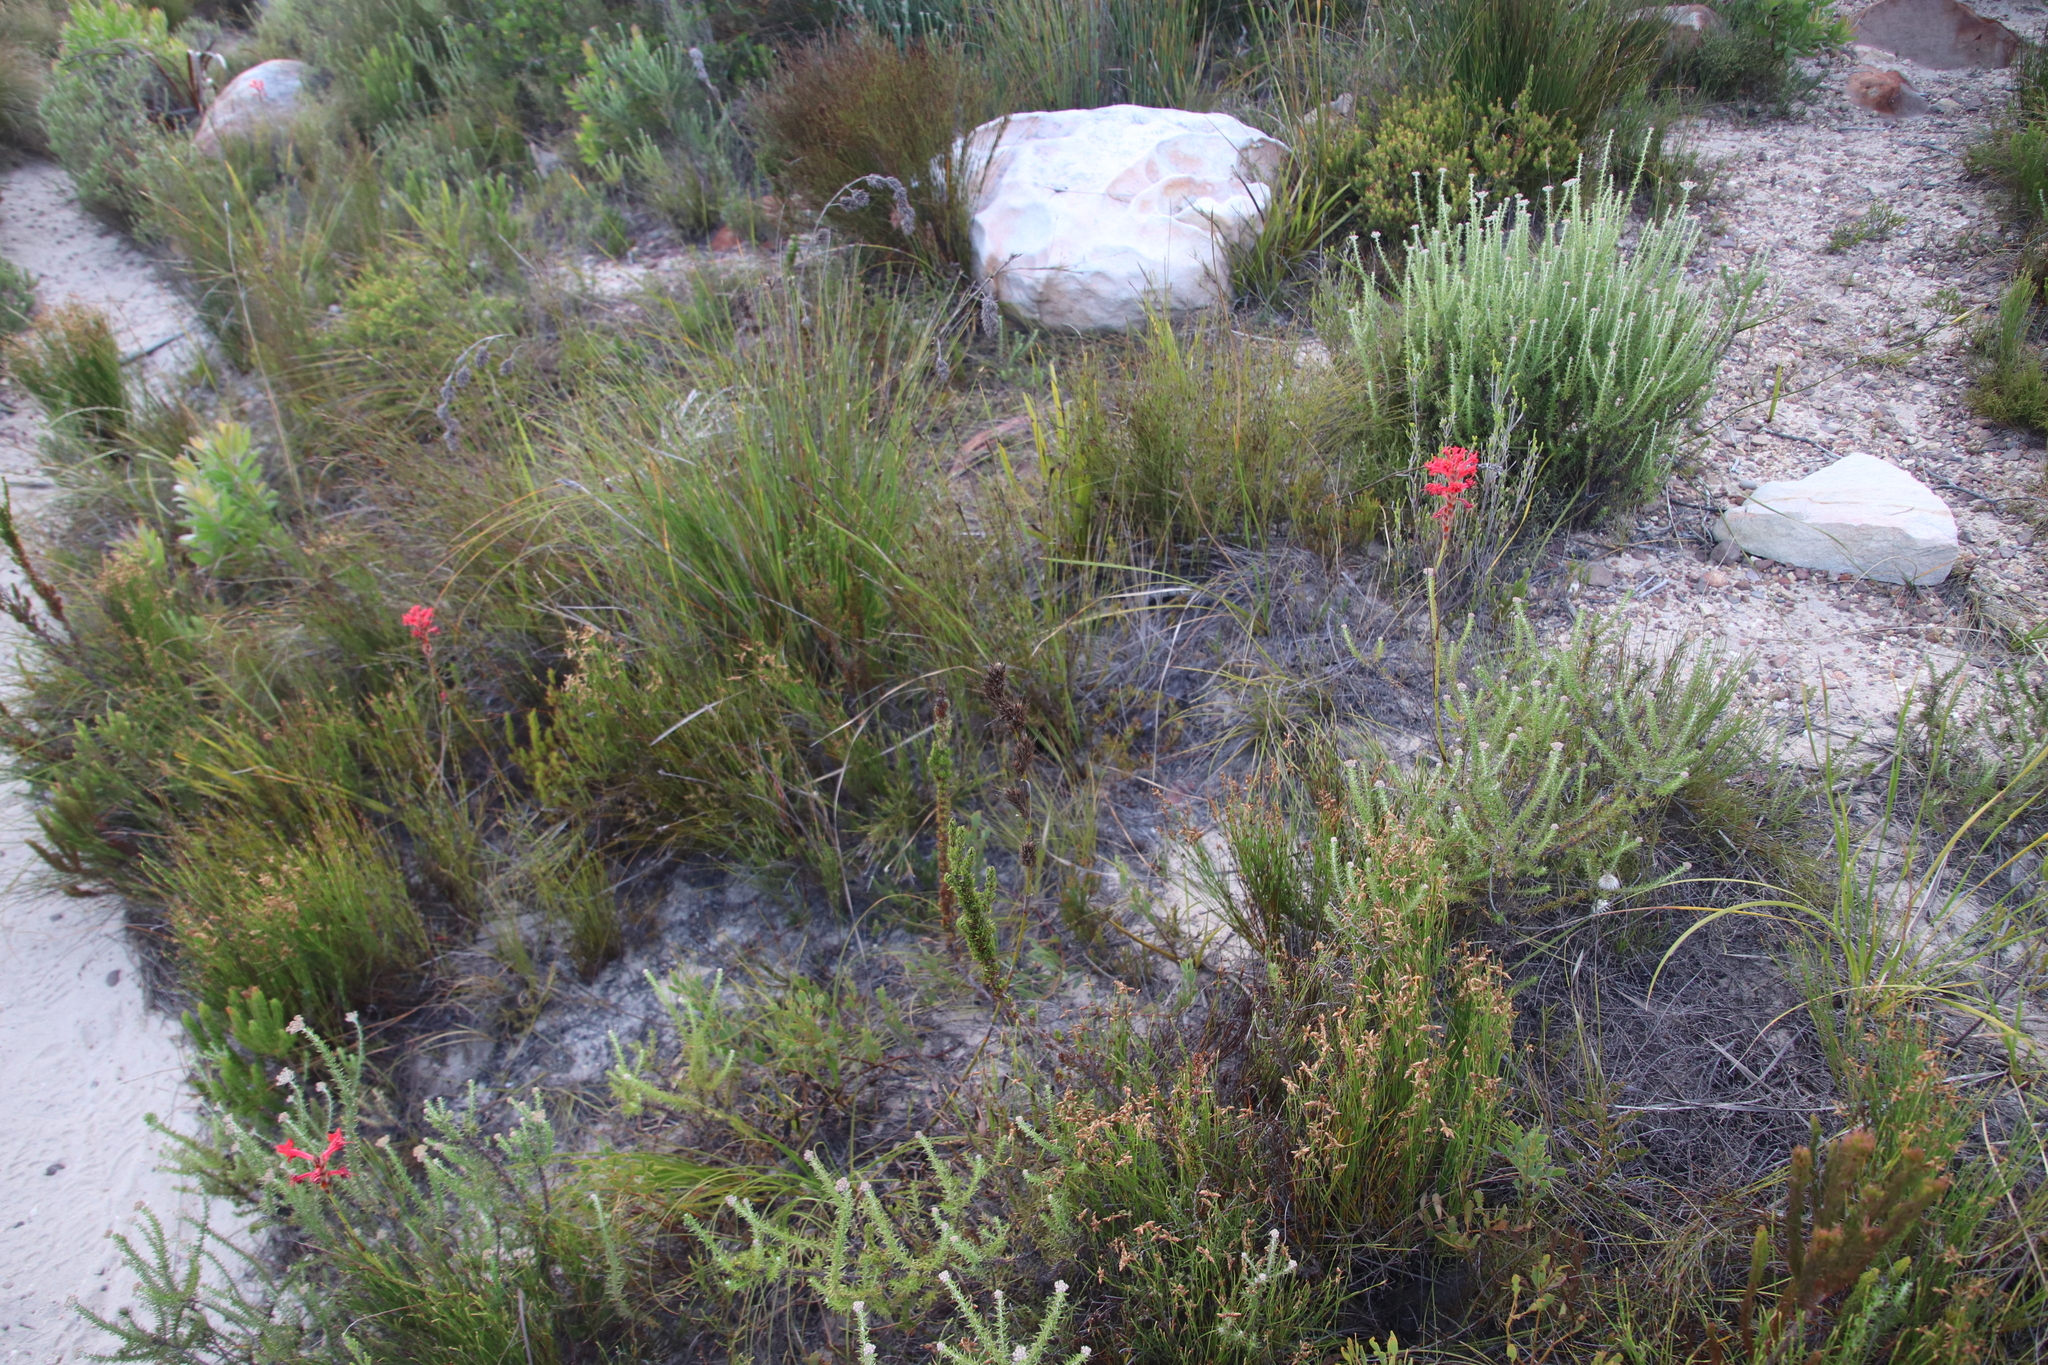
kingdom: Plantae
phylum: Tracheophyta
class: Liliopsida
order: Asparagales
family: Iridaceae
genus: Tritoniopsis
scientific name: Tritoniopsis triticea
